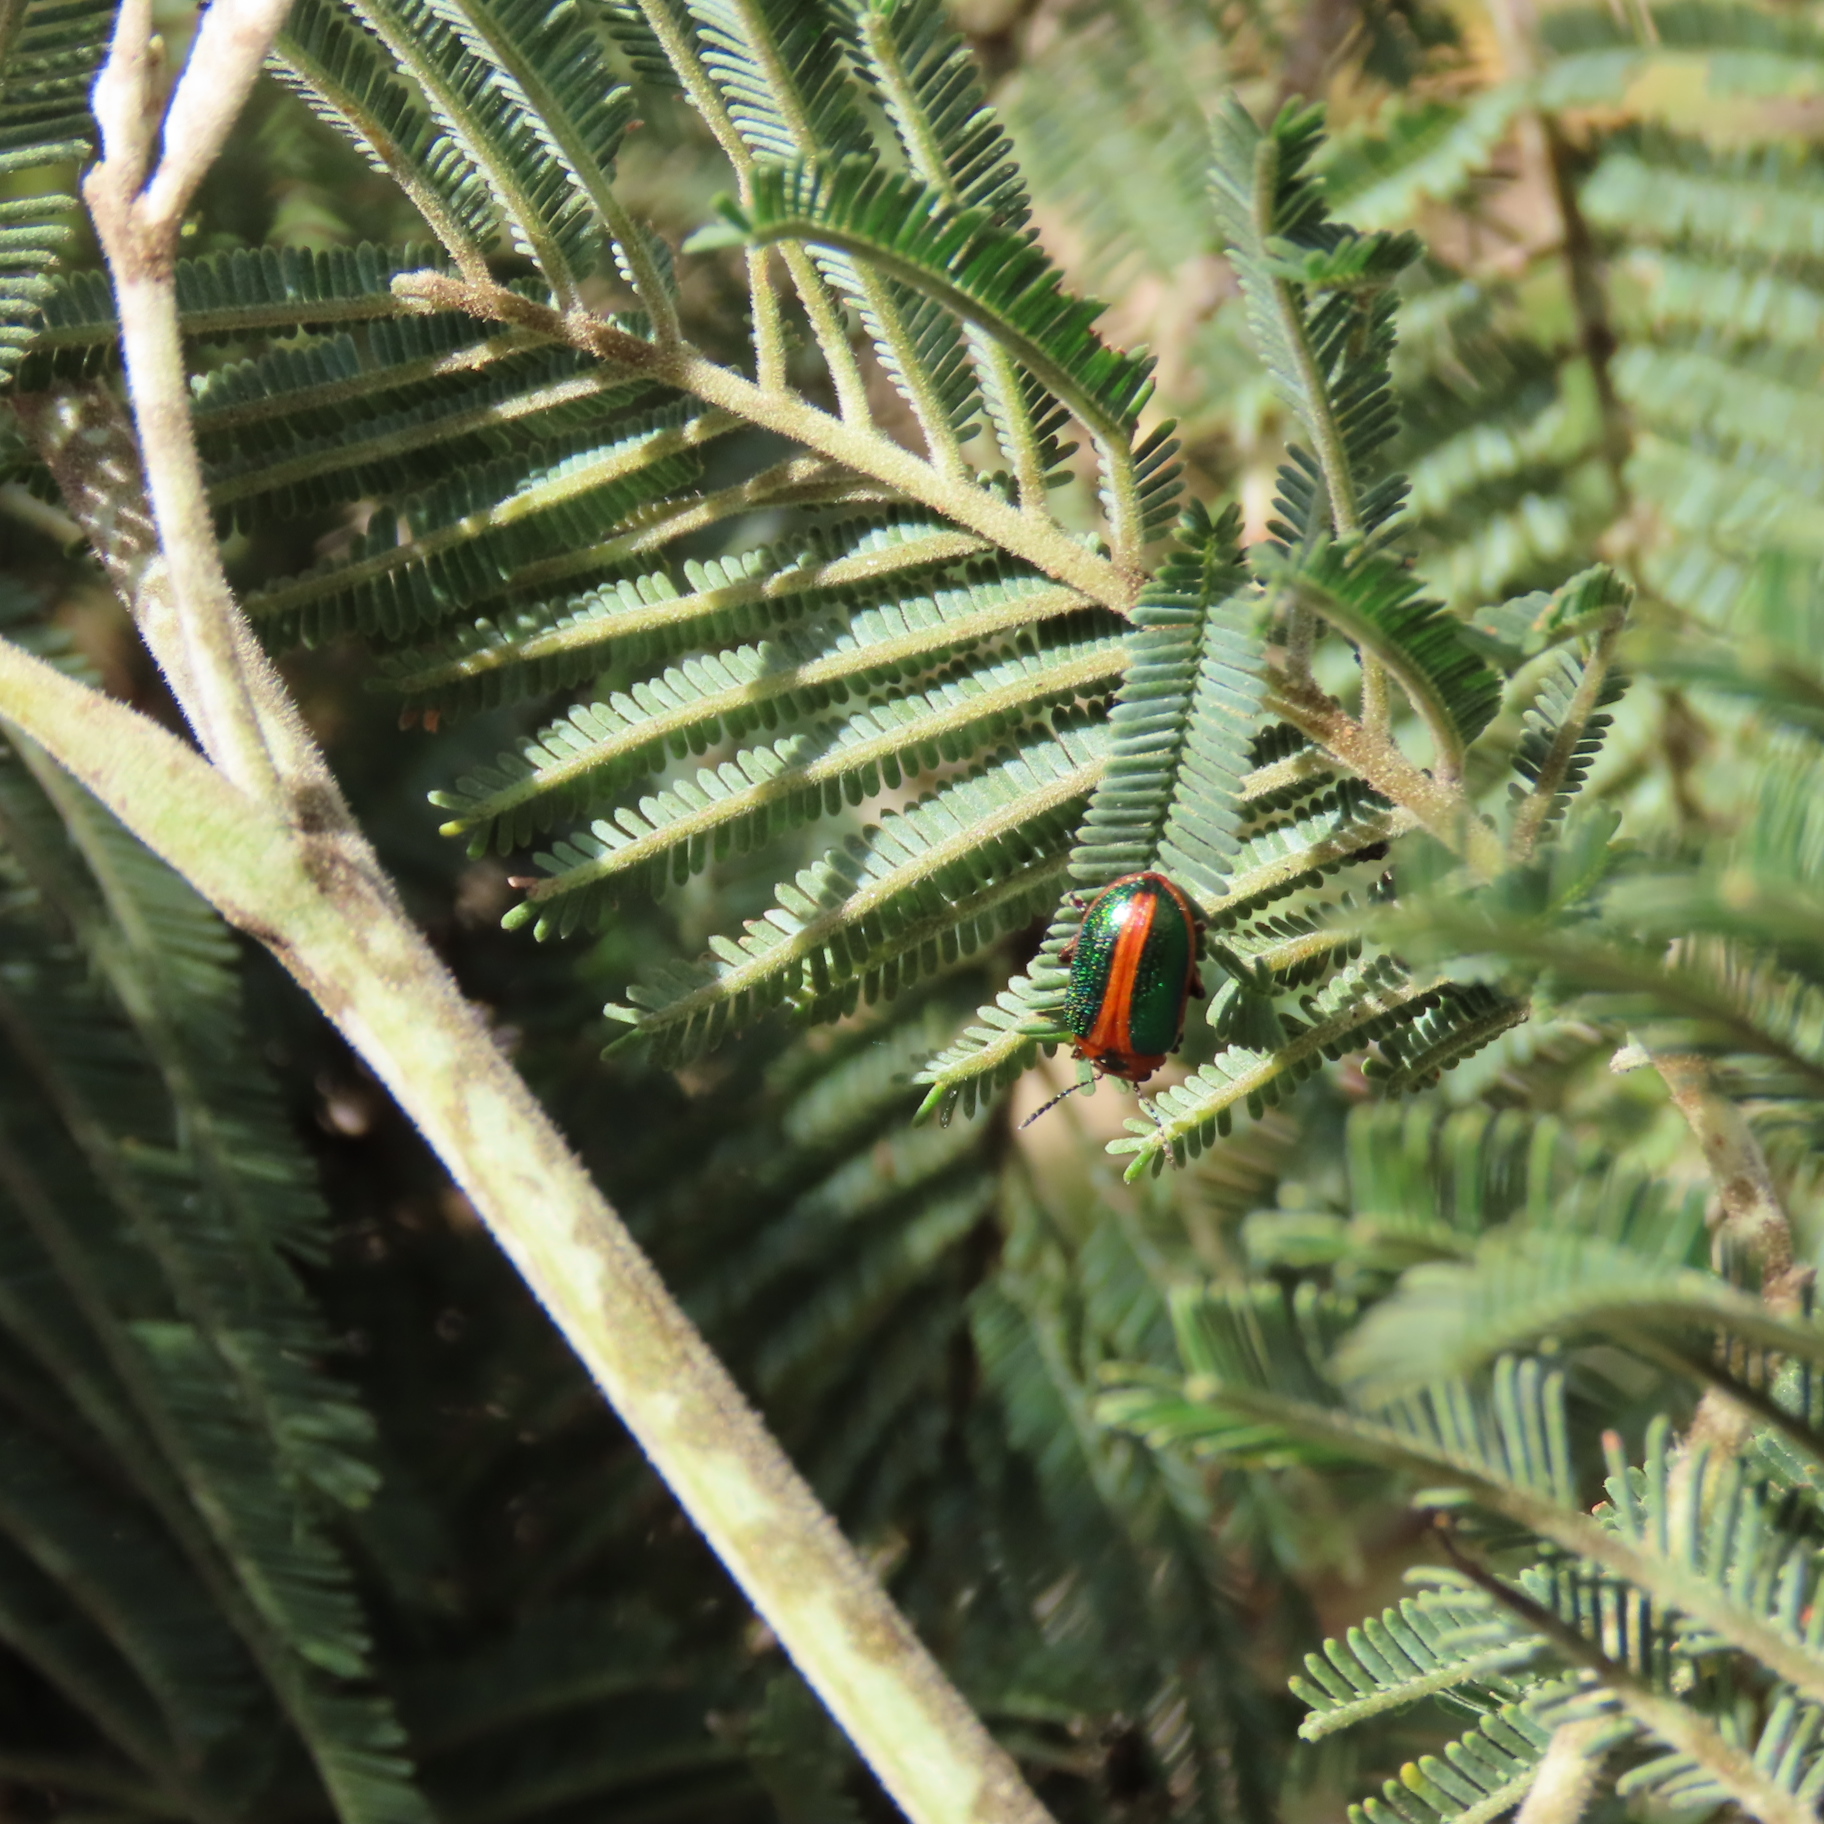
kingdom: Animalia
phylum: Arthropoda
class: Insecta
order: Coleoptera
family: Chrysomelidae
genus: Calomela
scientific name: Calomela
